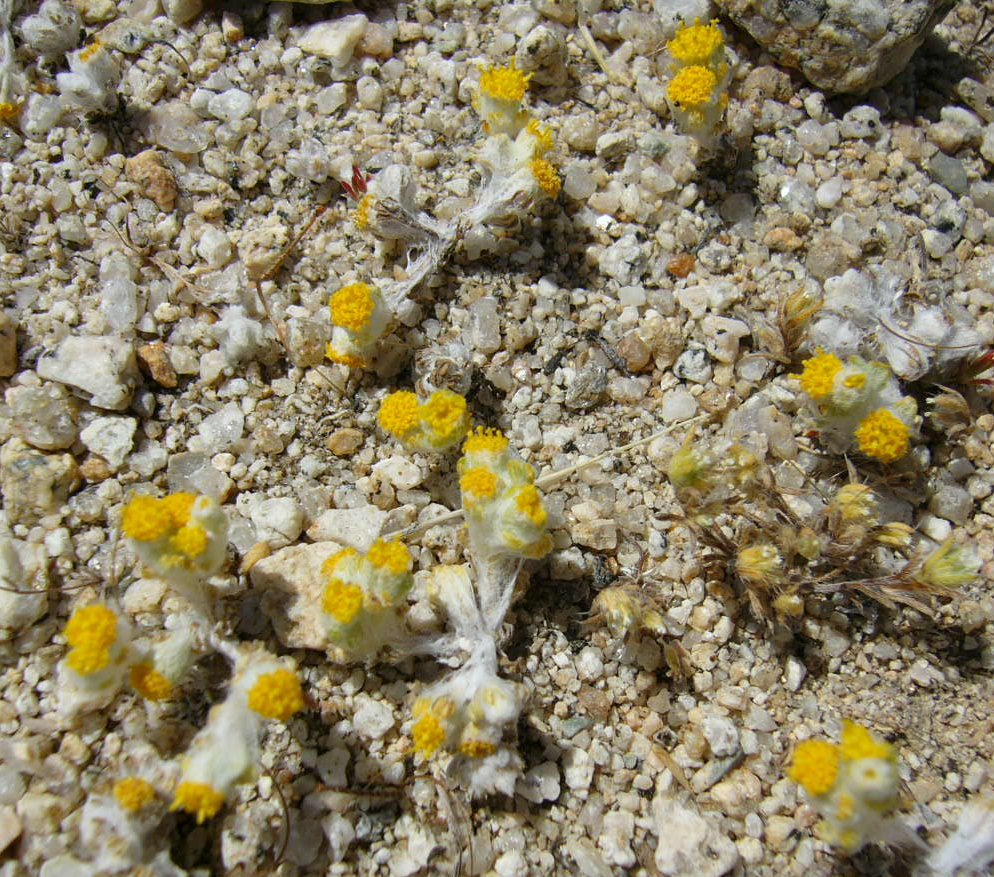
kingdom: Plantae
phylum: Tracheophyta
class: Magnoliopsida
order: Asterales
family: Asteraceae
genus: Eriophyllum
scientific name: Eriophyllum pringlei
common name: Pringle's woolly-sunflower
